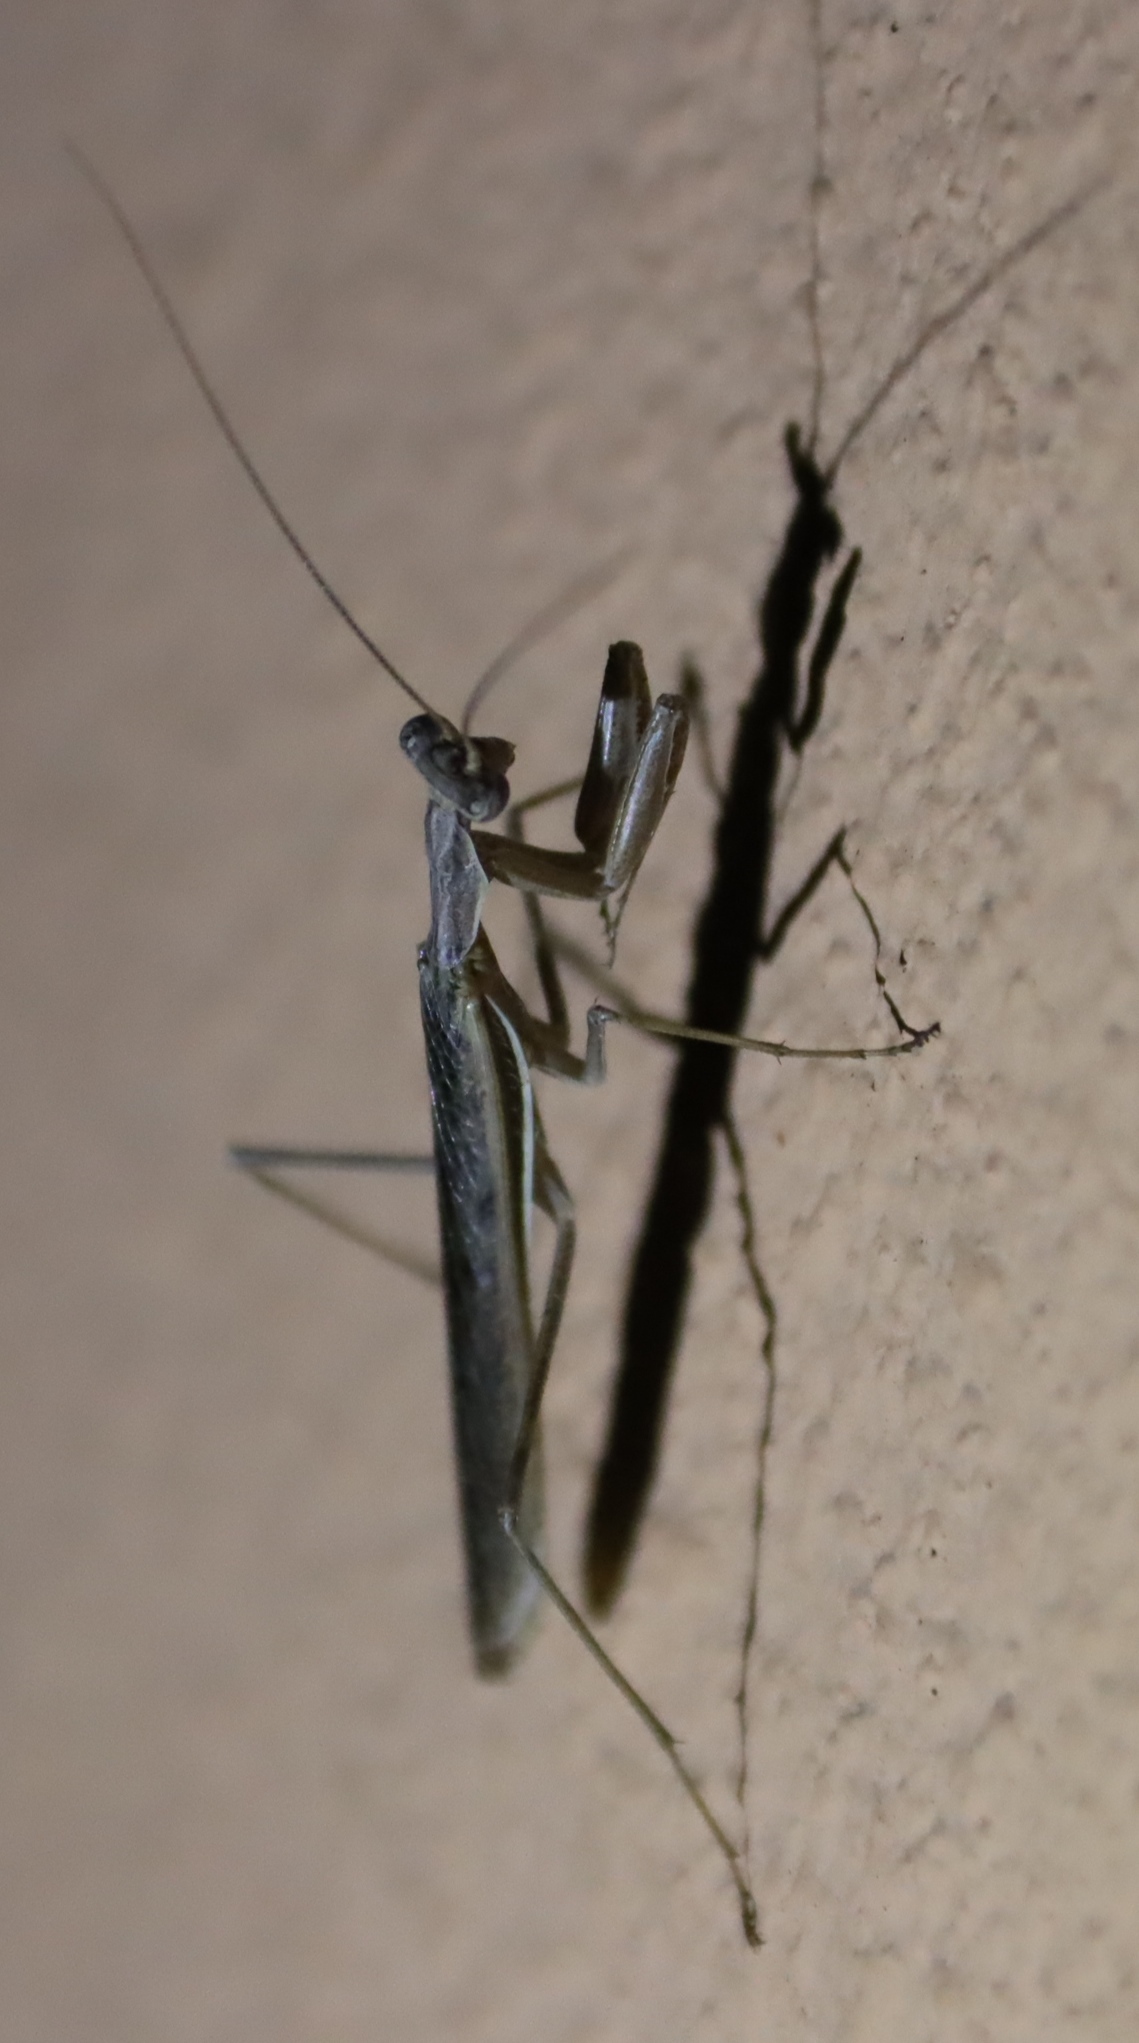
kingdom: Animalia
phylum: Arthropoda
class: Insecta
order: Mantodea
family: Chroicopteridae
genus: Ligariella
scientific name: Ligariella bicornuta
